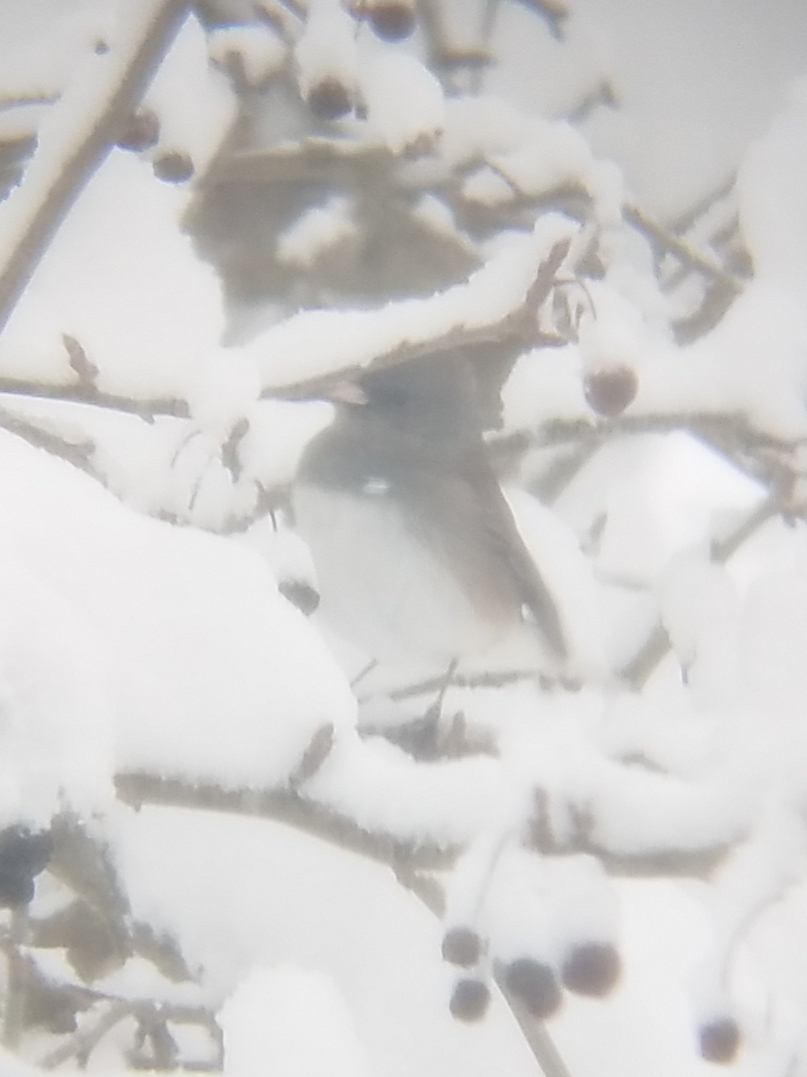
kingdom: Animalia
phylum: Chordata
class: Aves
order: Passeriformes
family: Passerellidae
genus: Junco
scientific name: Junco hyemalis
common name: Dark-eyed junco
